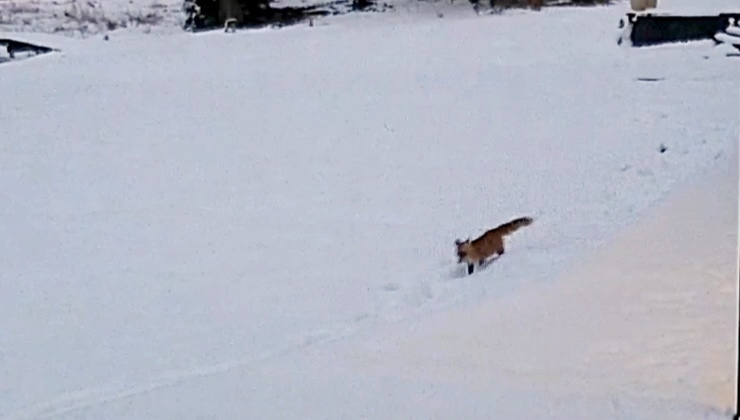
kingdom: Animalia
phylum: Chordata
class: Mammalia
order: Carnivora
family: Canidae
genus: Vulpes
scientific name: Vulpes vulpes
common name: Red fox
